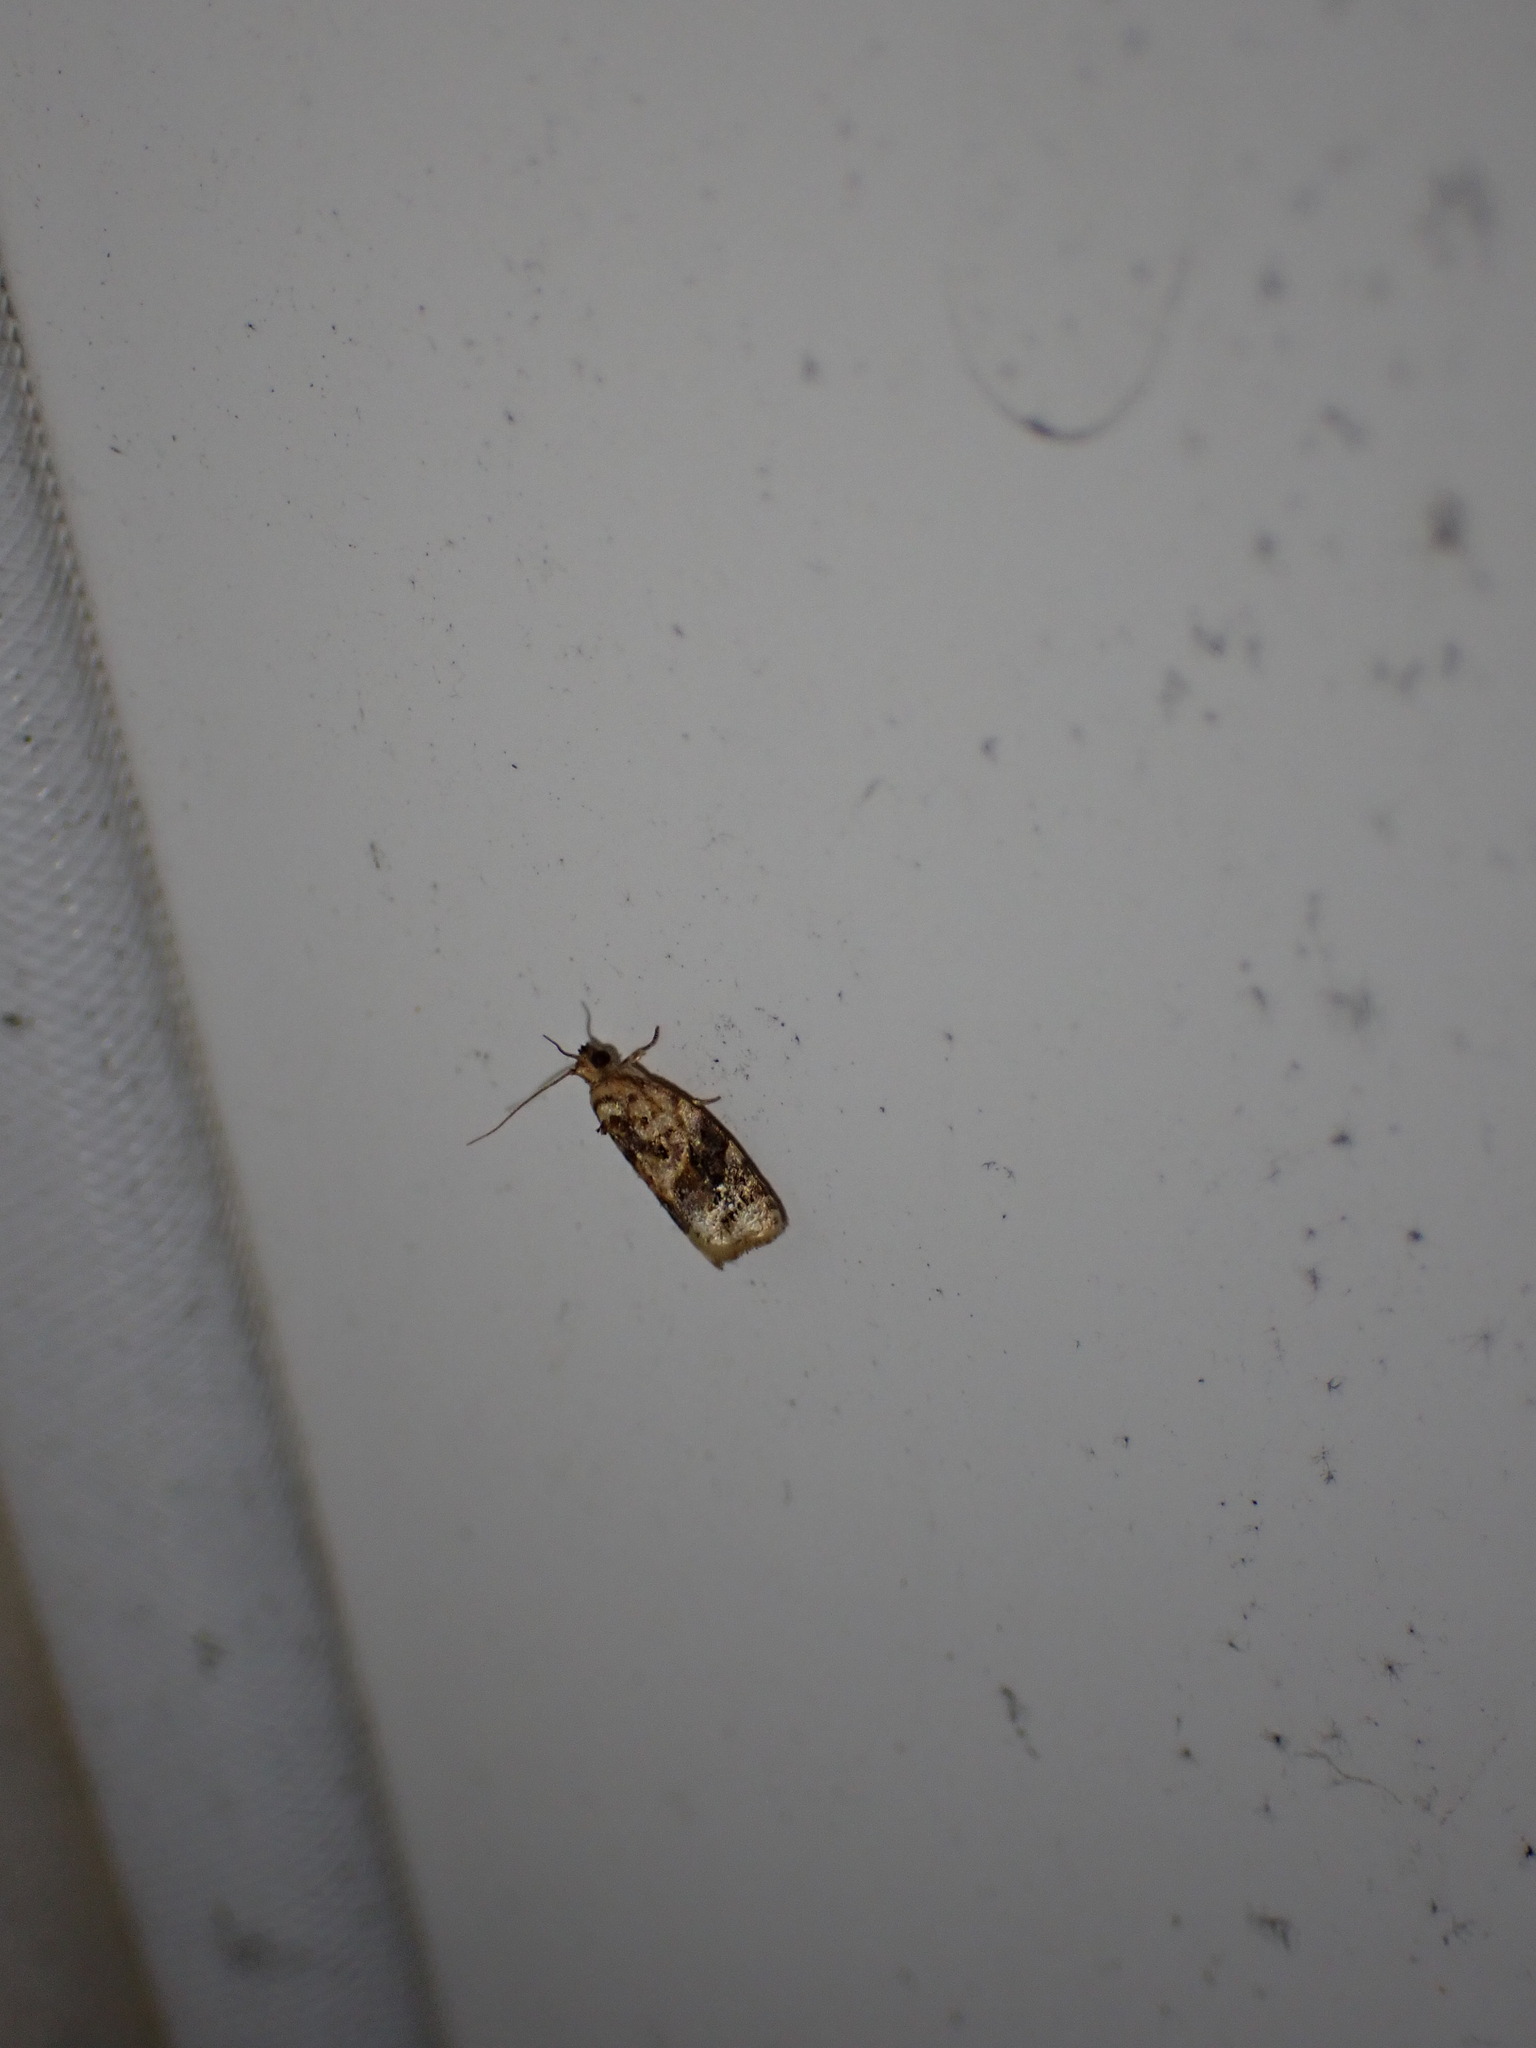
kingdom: Animalia
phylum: Arthropoda
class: Insecta
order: Lepidoptera
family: Tortricidae
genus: Argyrotaenia
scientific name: Argyrotaenia velutinana
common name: Red-banded leafroller moth
